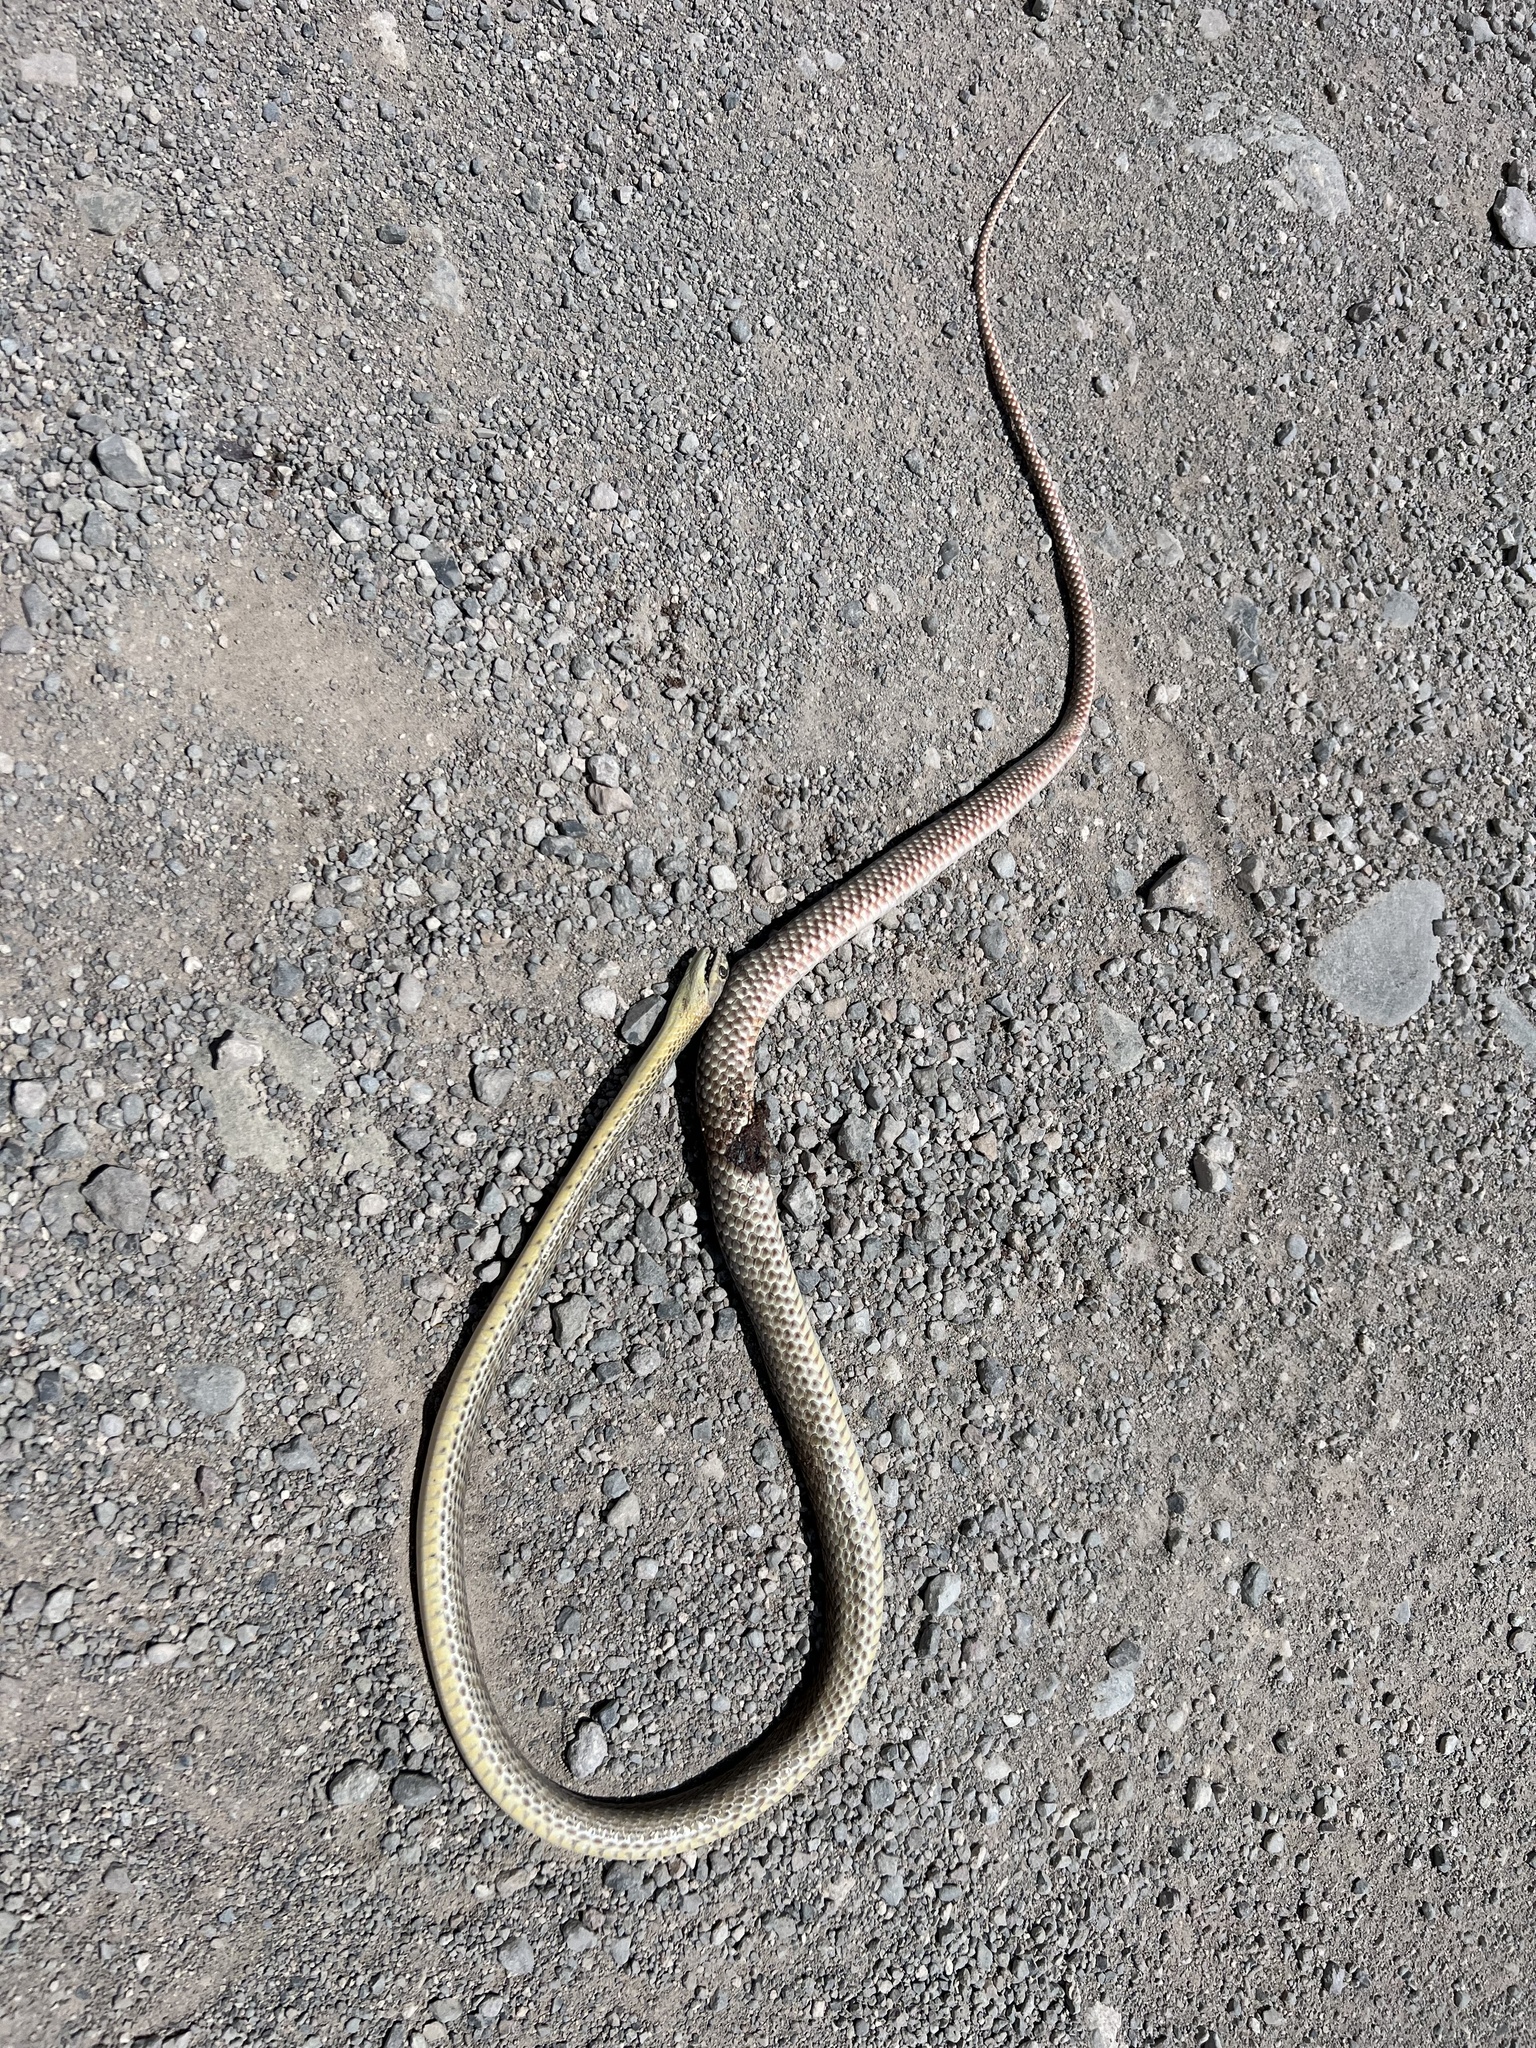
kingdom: Animalia
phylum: Chordata
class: Squamata
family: Colubridae
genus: Masticophis
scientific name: Masticophis flagellum
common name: Coachwhip
